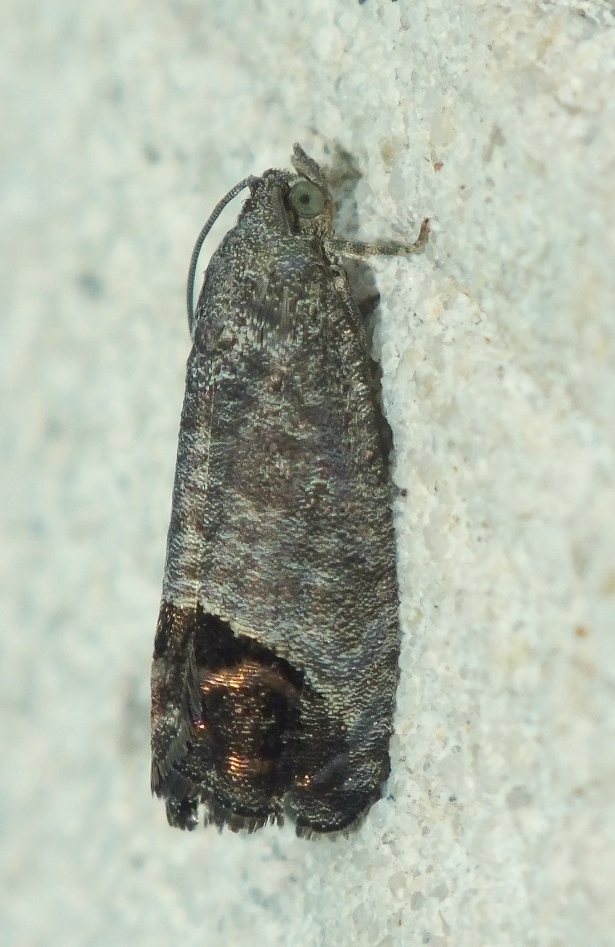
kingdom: Animalia
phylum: Arthropoda
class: Insecta
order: Lepidoptera
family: Tortricidae
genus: Cydia
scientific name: Cydia pomonella
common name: Codling moth
